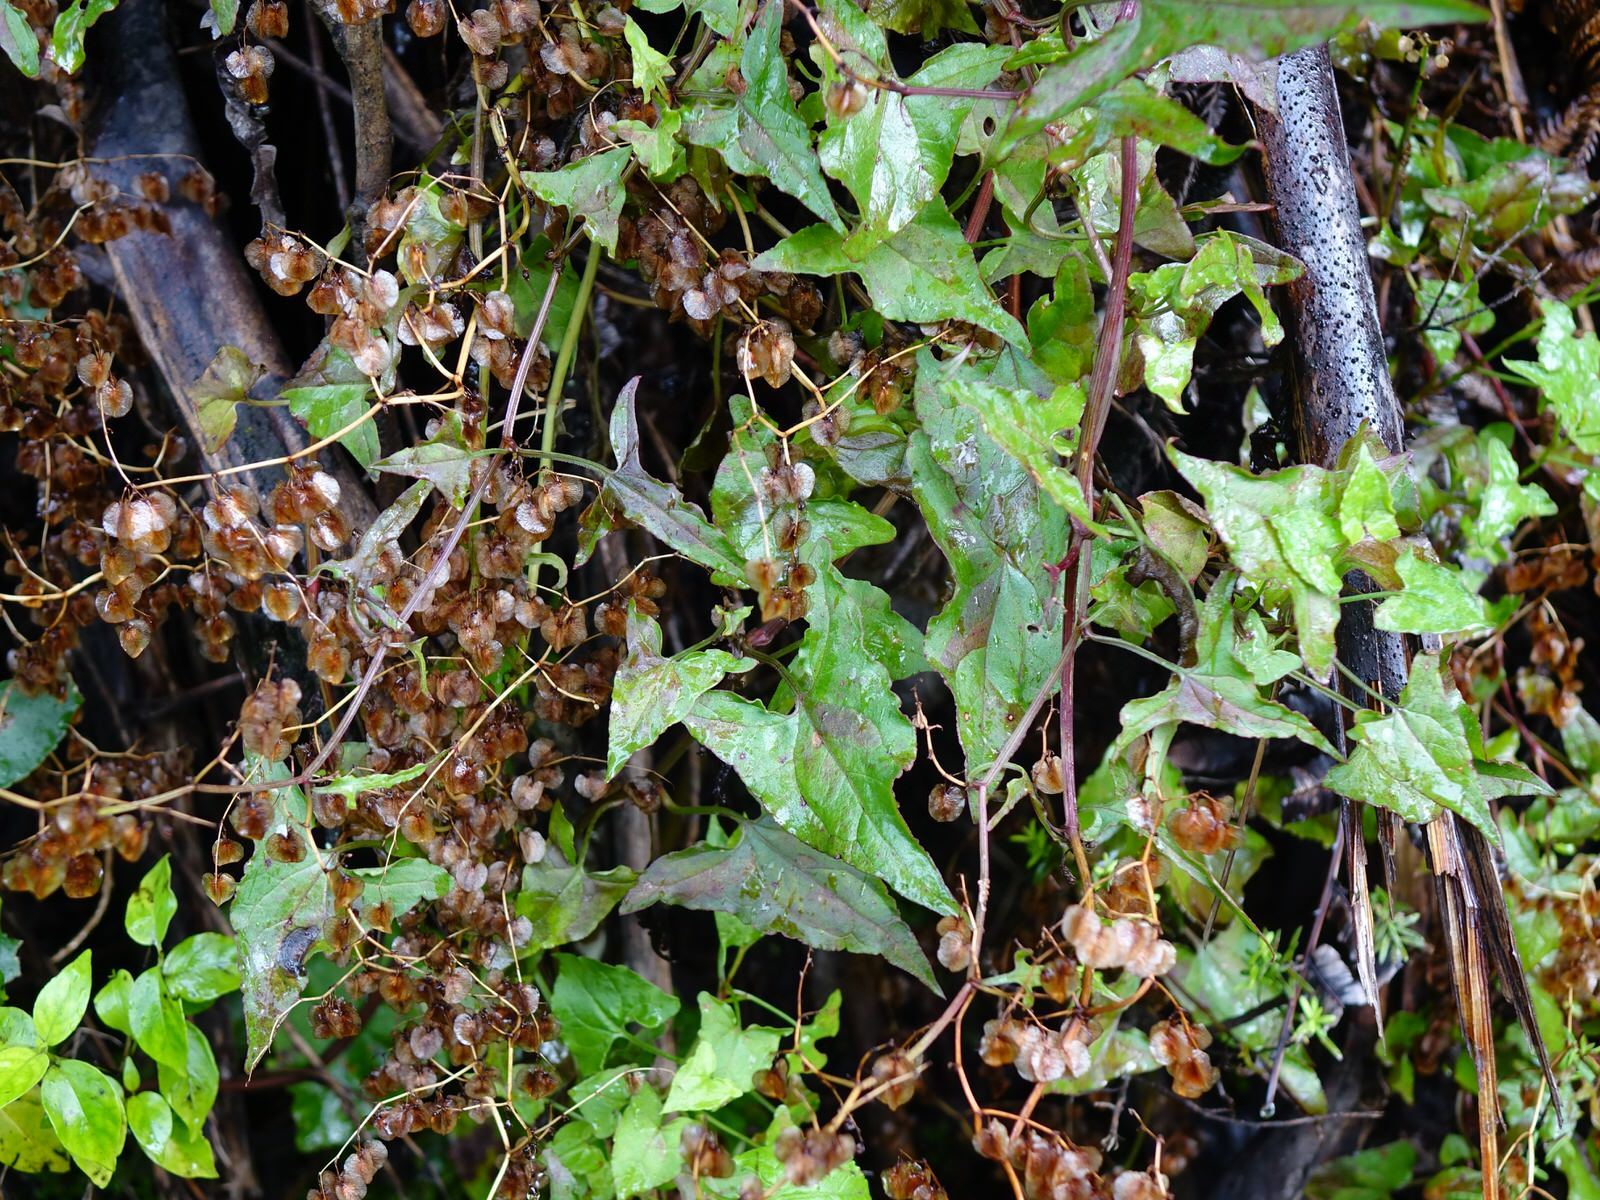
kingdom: Plantae
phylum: Tracheophyta
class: Magnoliopsida
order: Caryophyllales
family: Polygonaceae
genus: Rumex
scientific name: Rumex sagittatus
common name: Climbing dock
